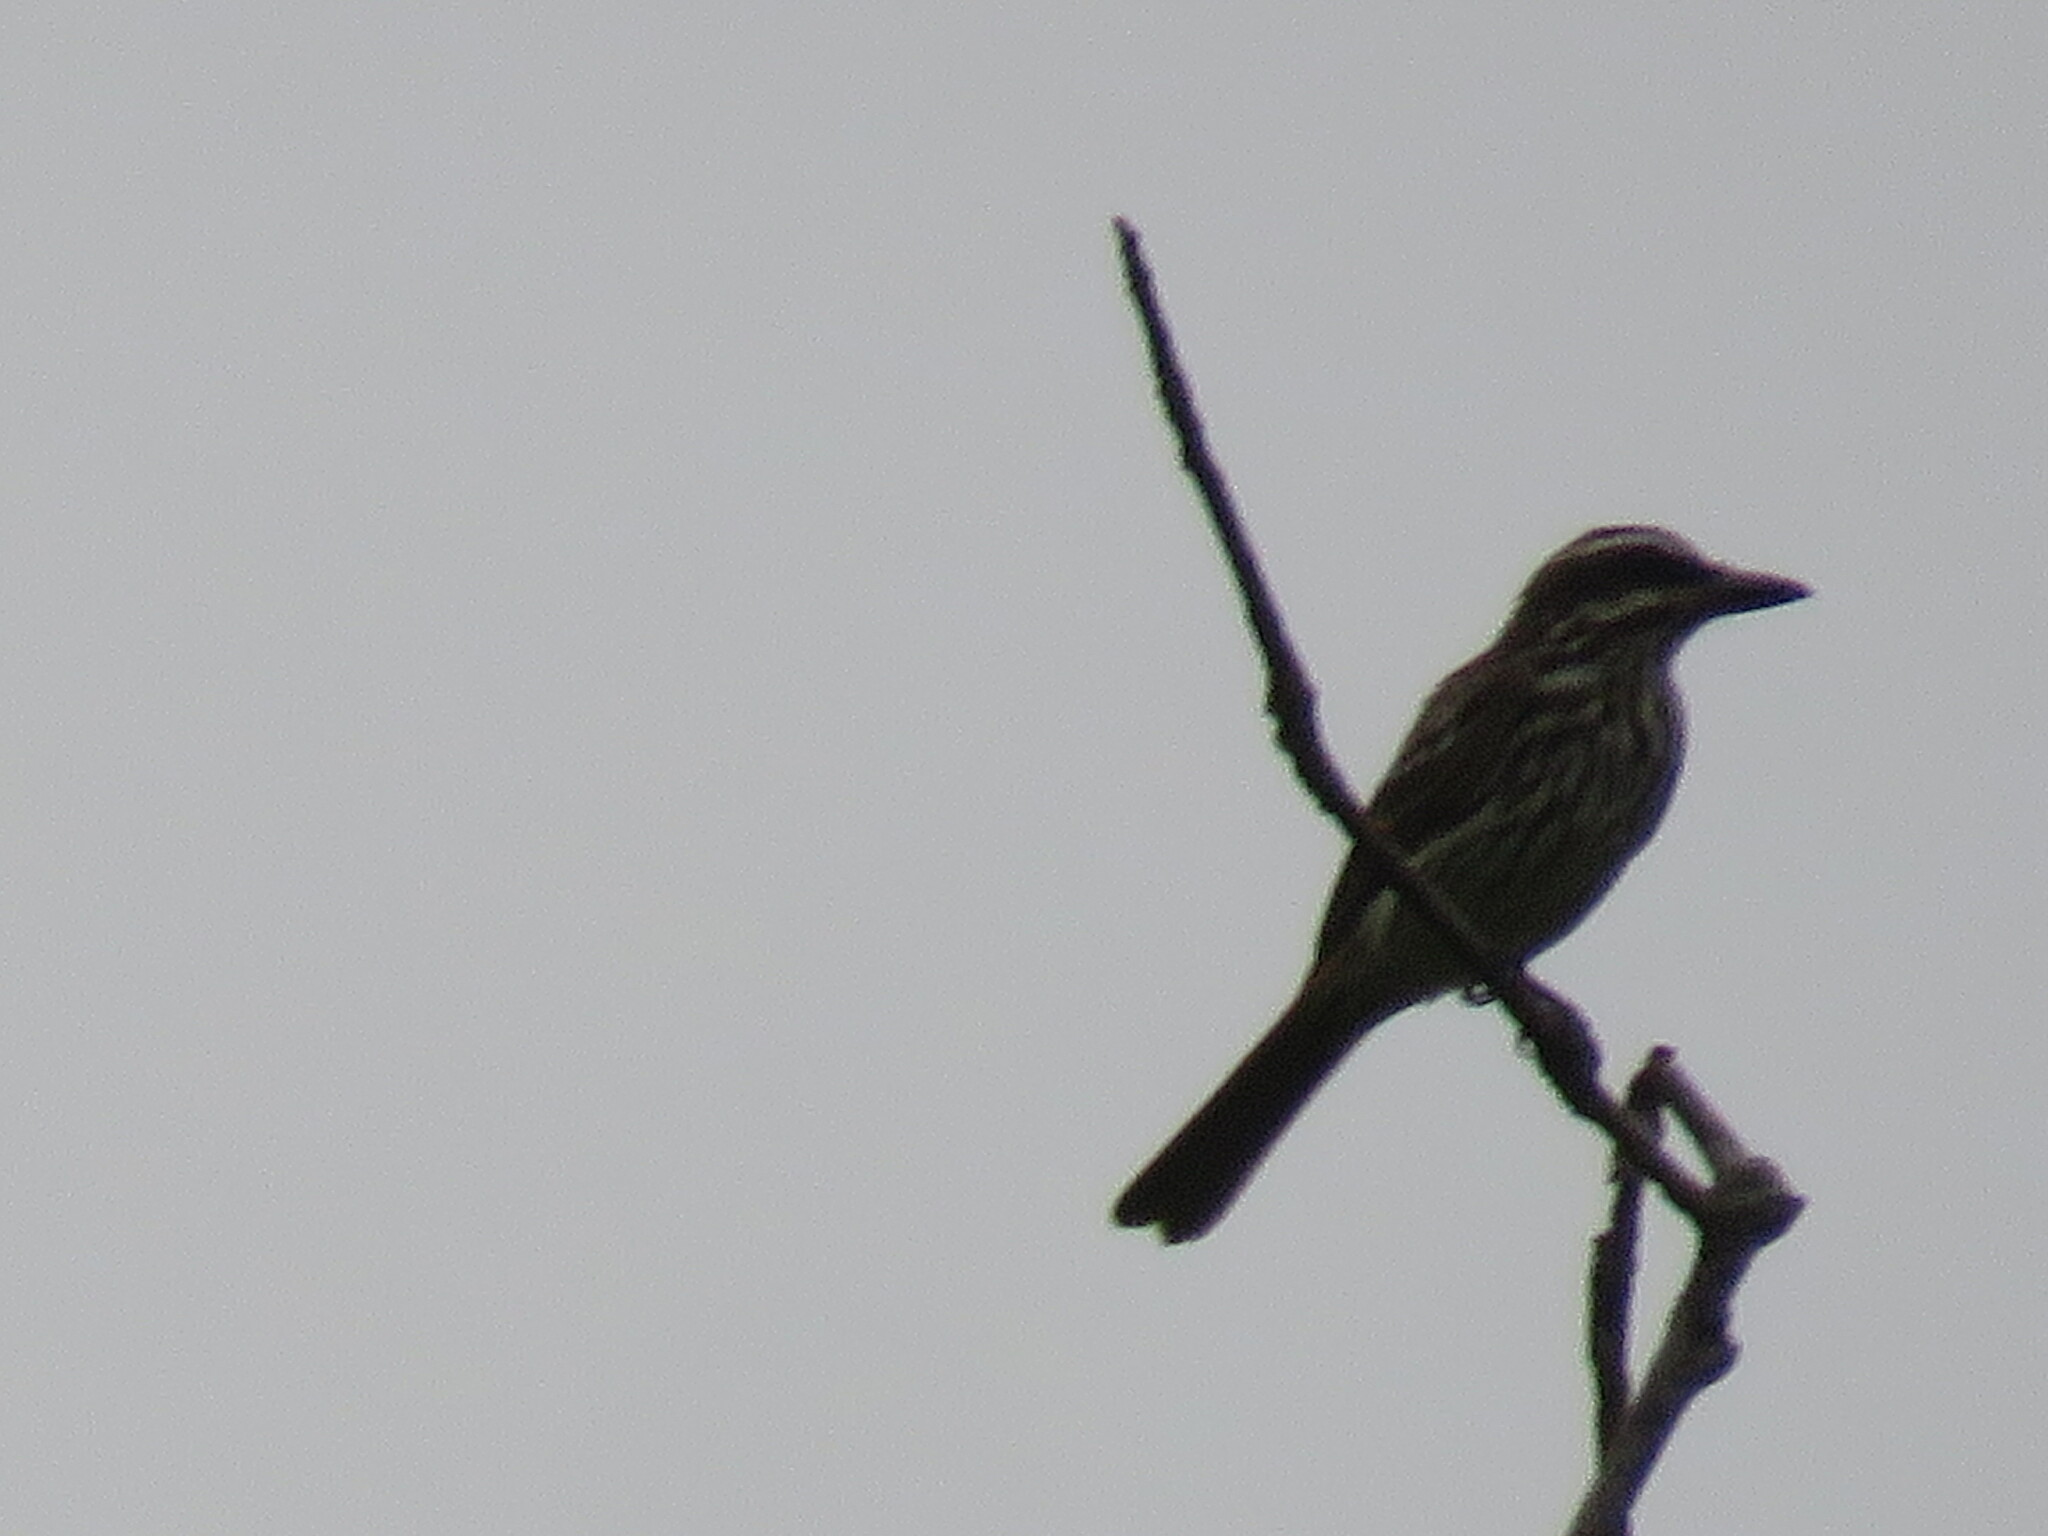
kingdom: Animalia
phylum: Chordata
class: Aves
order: Passeriformes
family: Tyrannidae
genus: Myiodynastes
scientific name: Myiodynastes maculatus
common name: Streaked flycatcher
